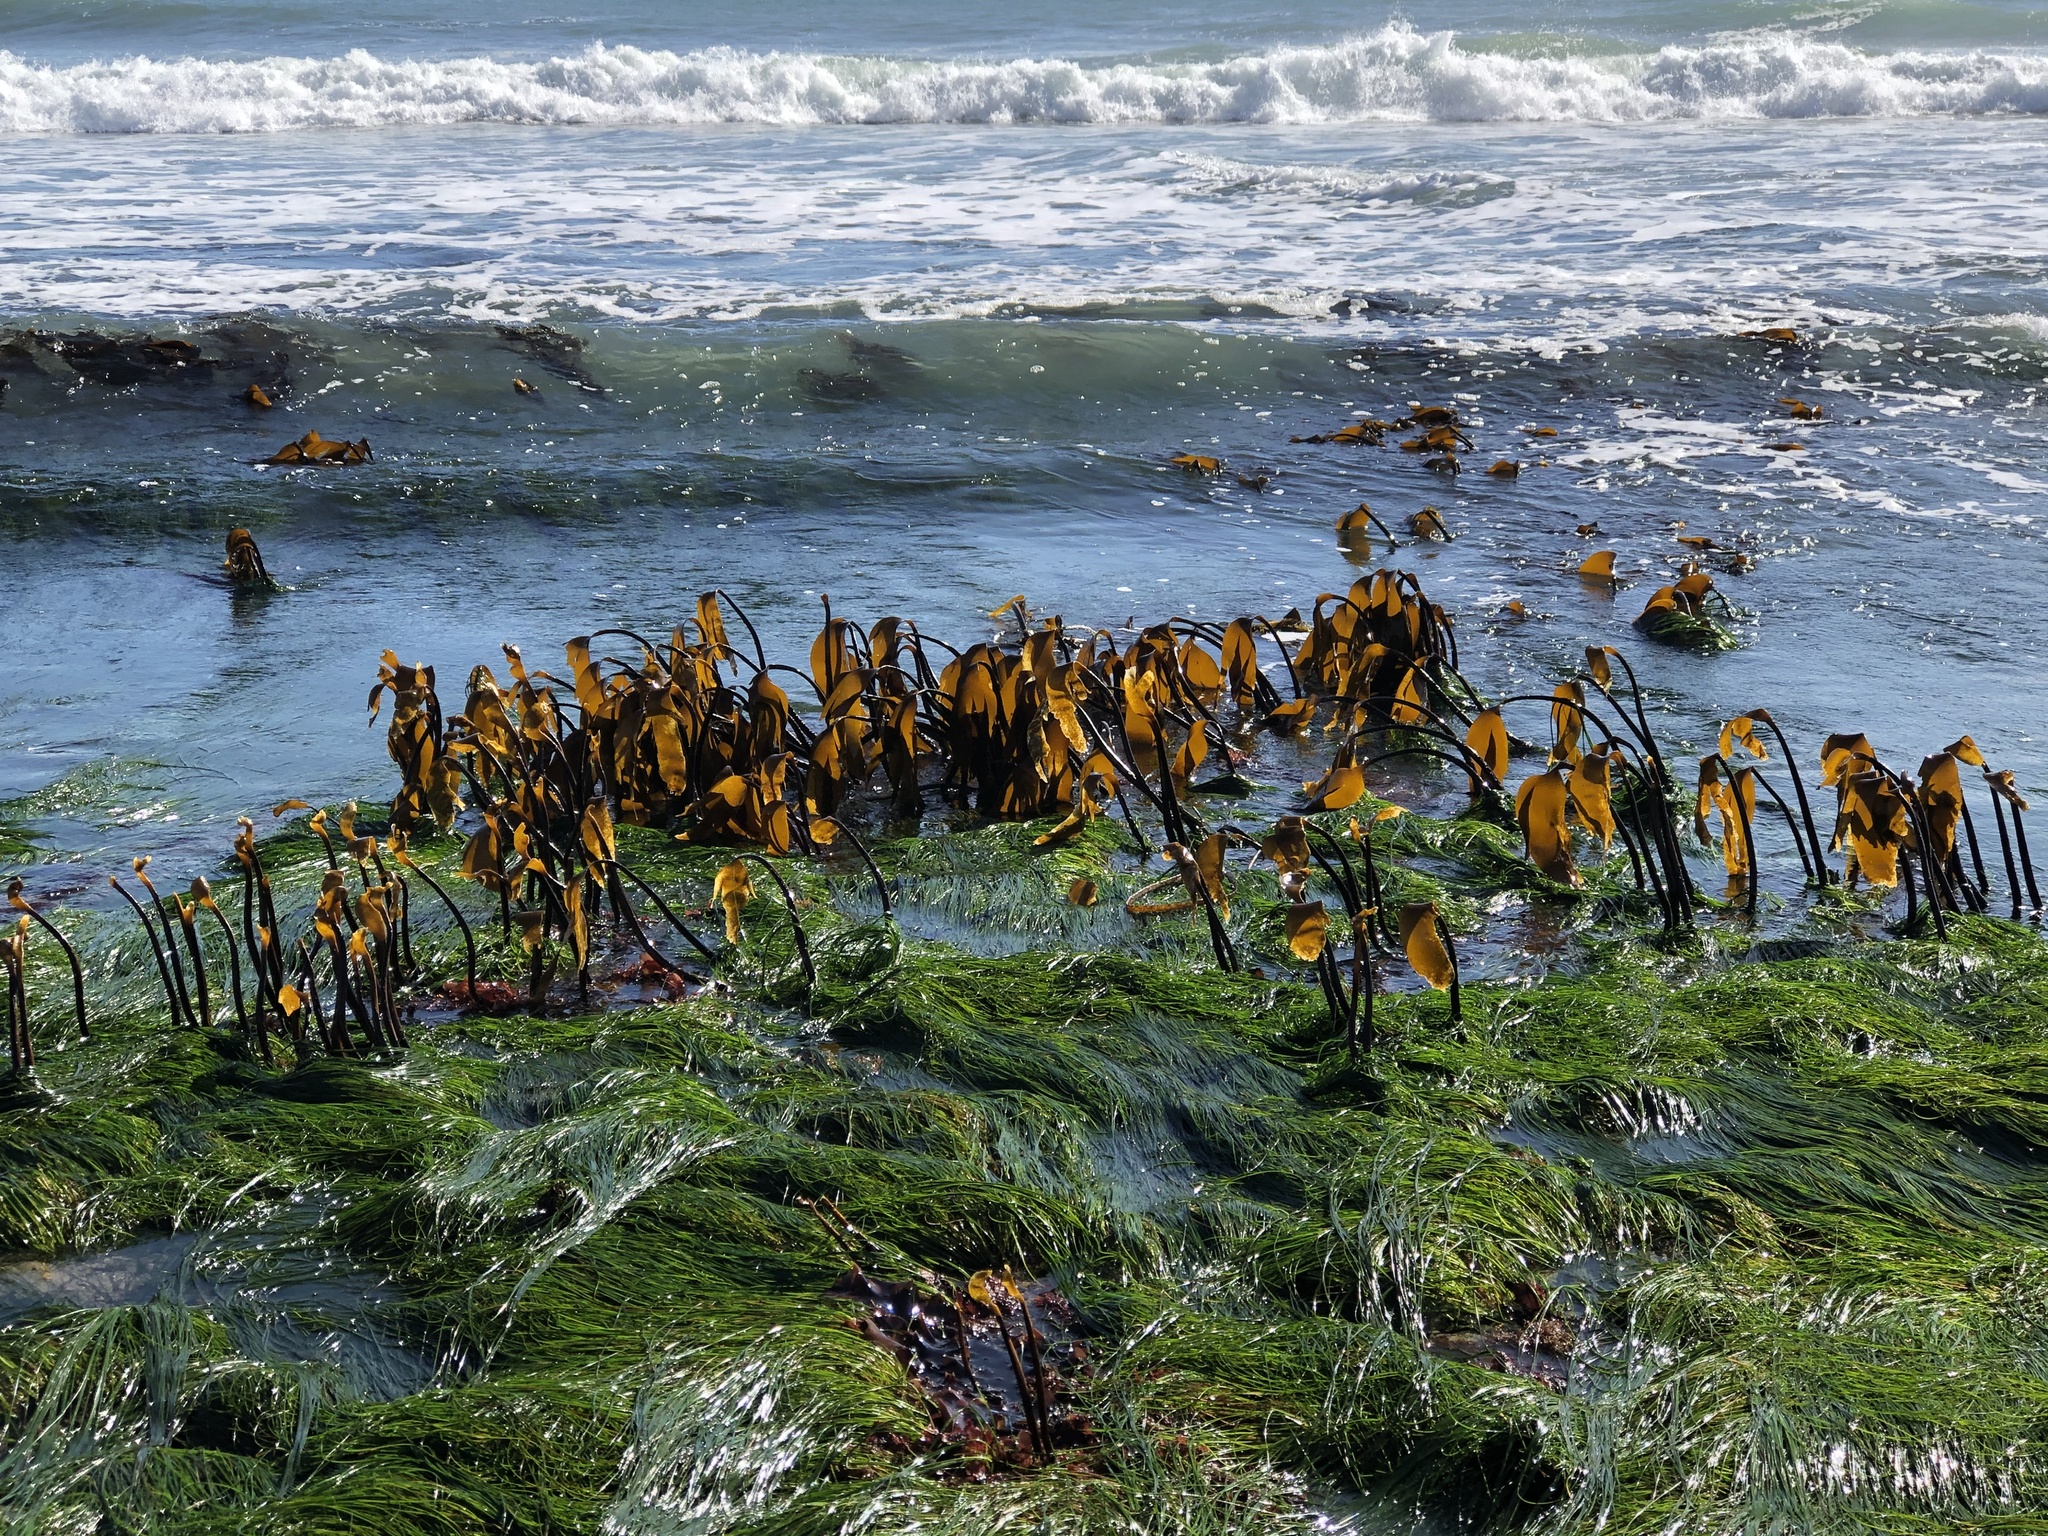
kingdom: Chromista
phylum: Ochrophyta
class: Phaeophyceae
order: Laminariales
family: Laminariaceae
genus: Laminaria
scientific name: Laminaria setchellii
